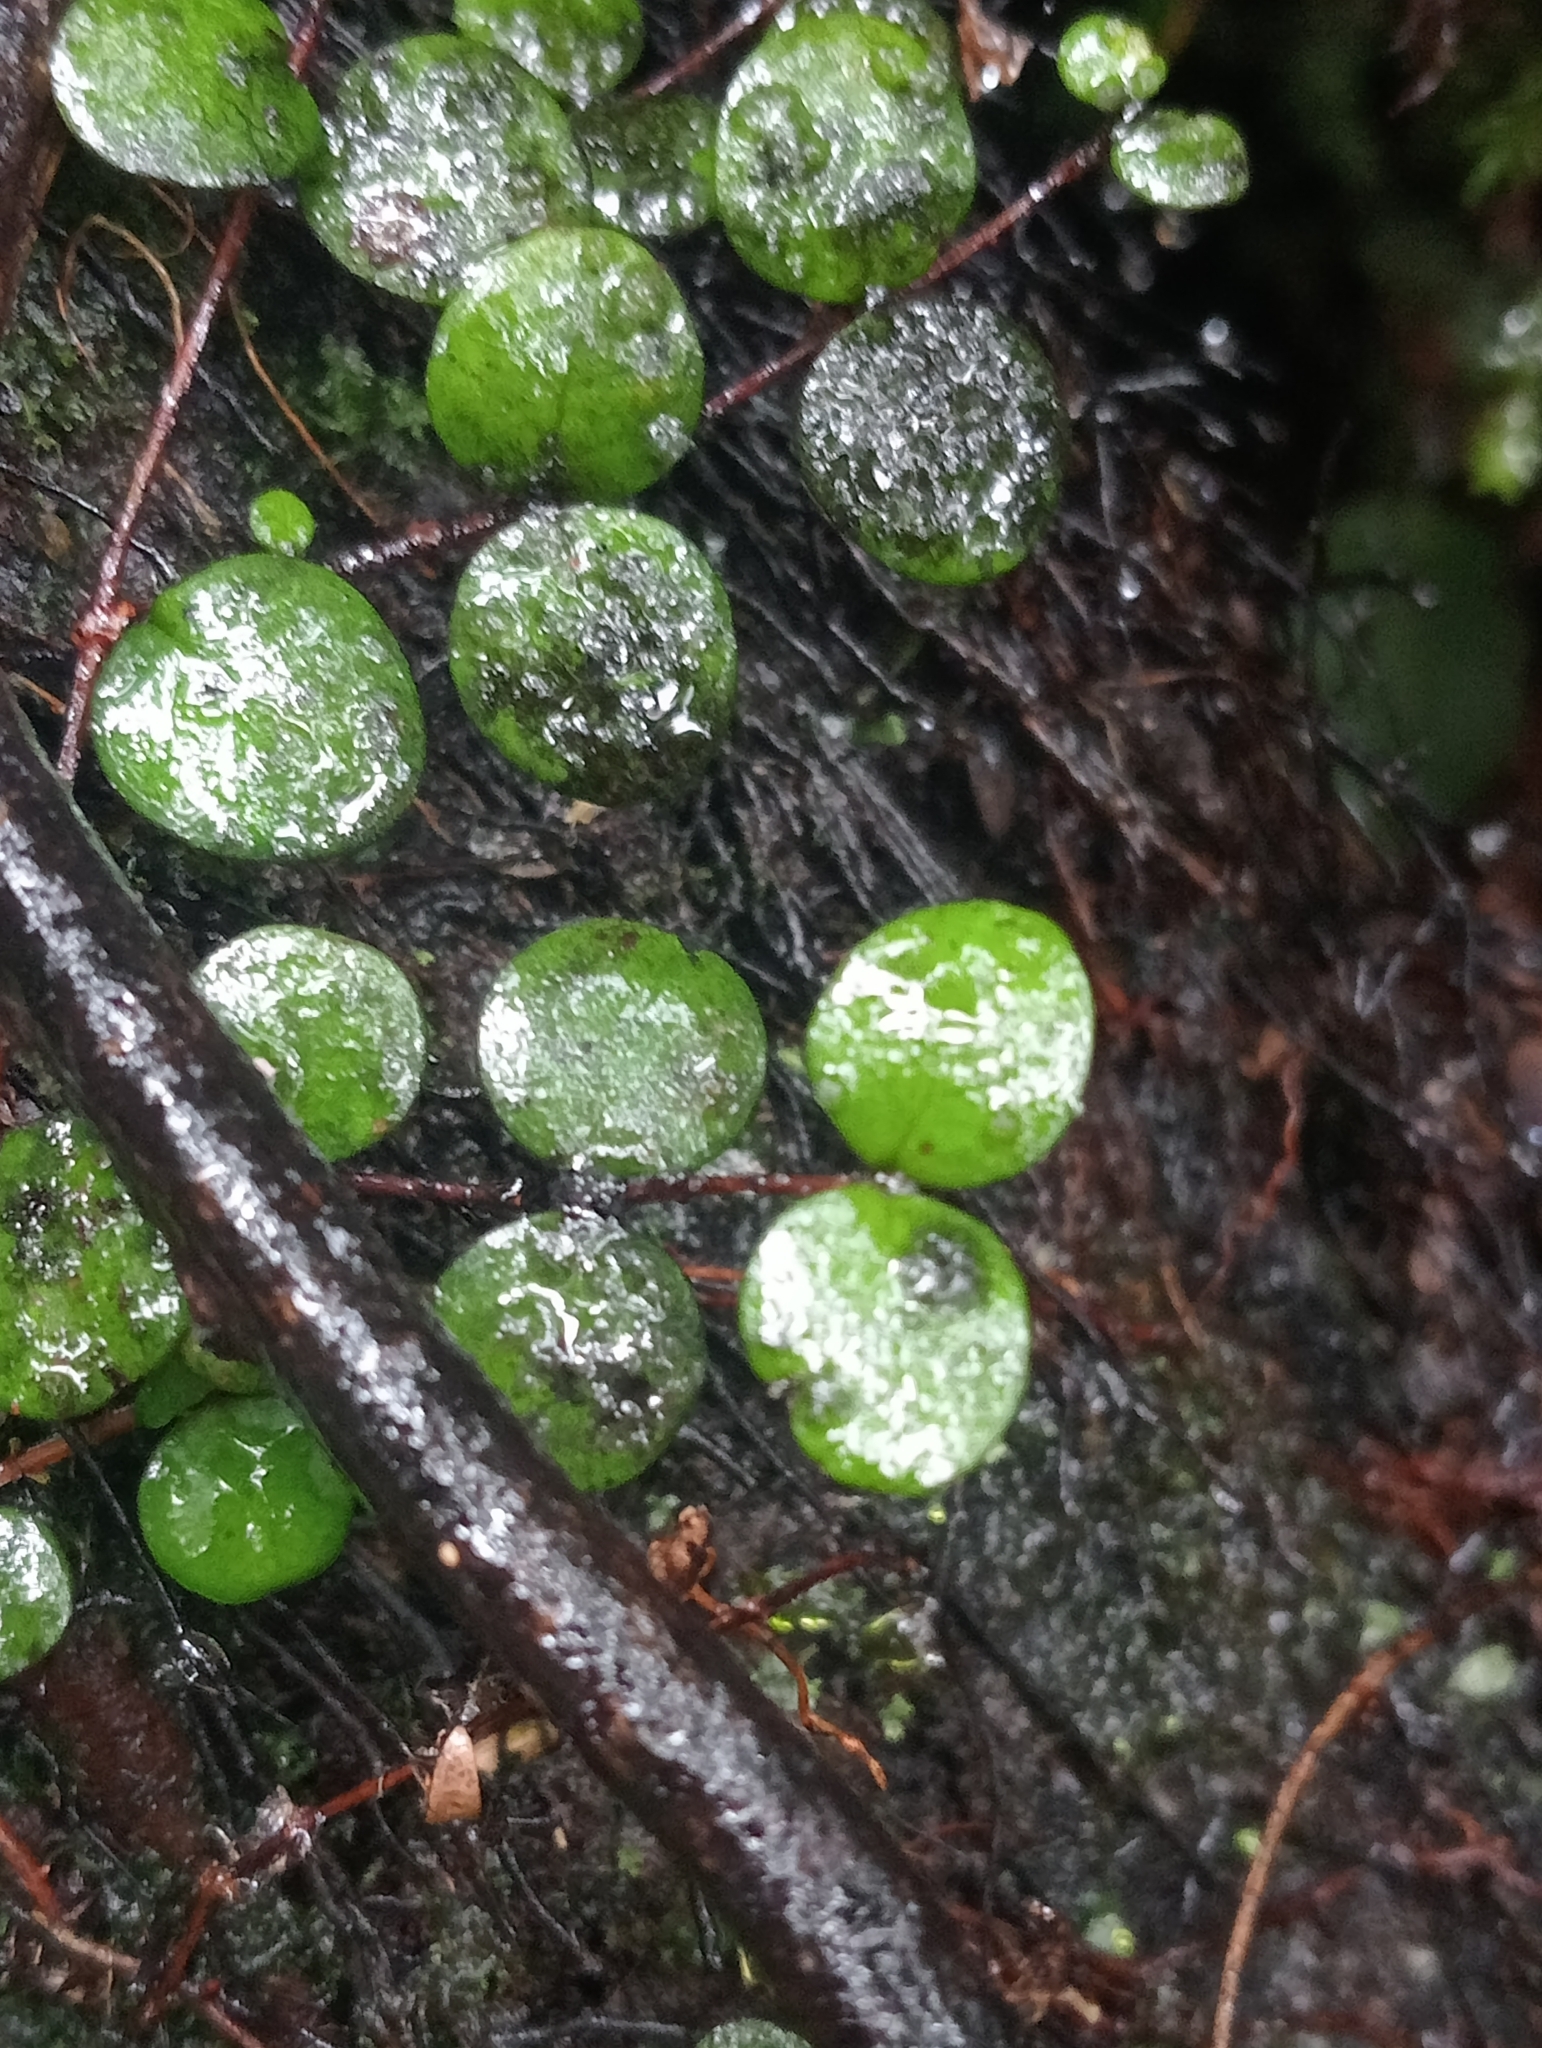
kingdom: Plantae
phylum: Tracheophyta
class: Magnoliopsida
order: Myrtales
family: Myrtaceae
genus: Metrosideros
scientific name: Metrosideros perforata
